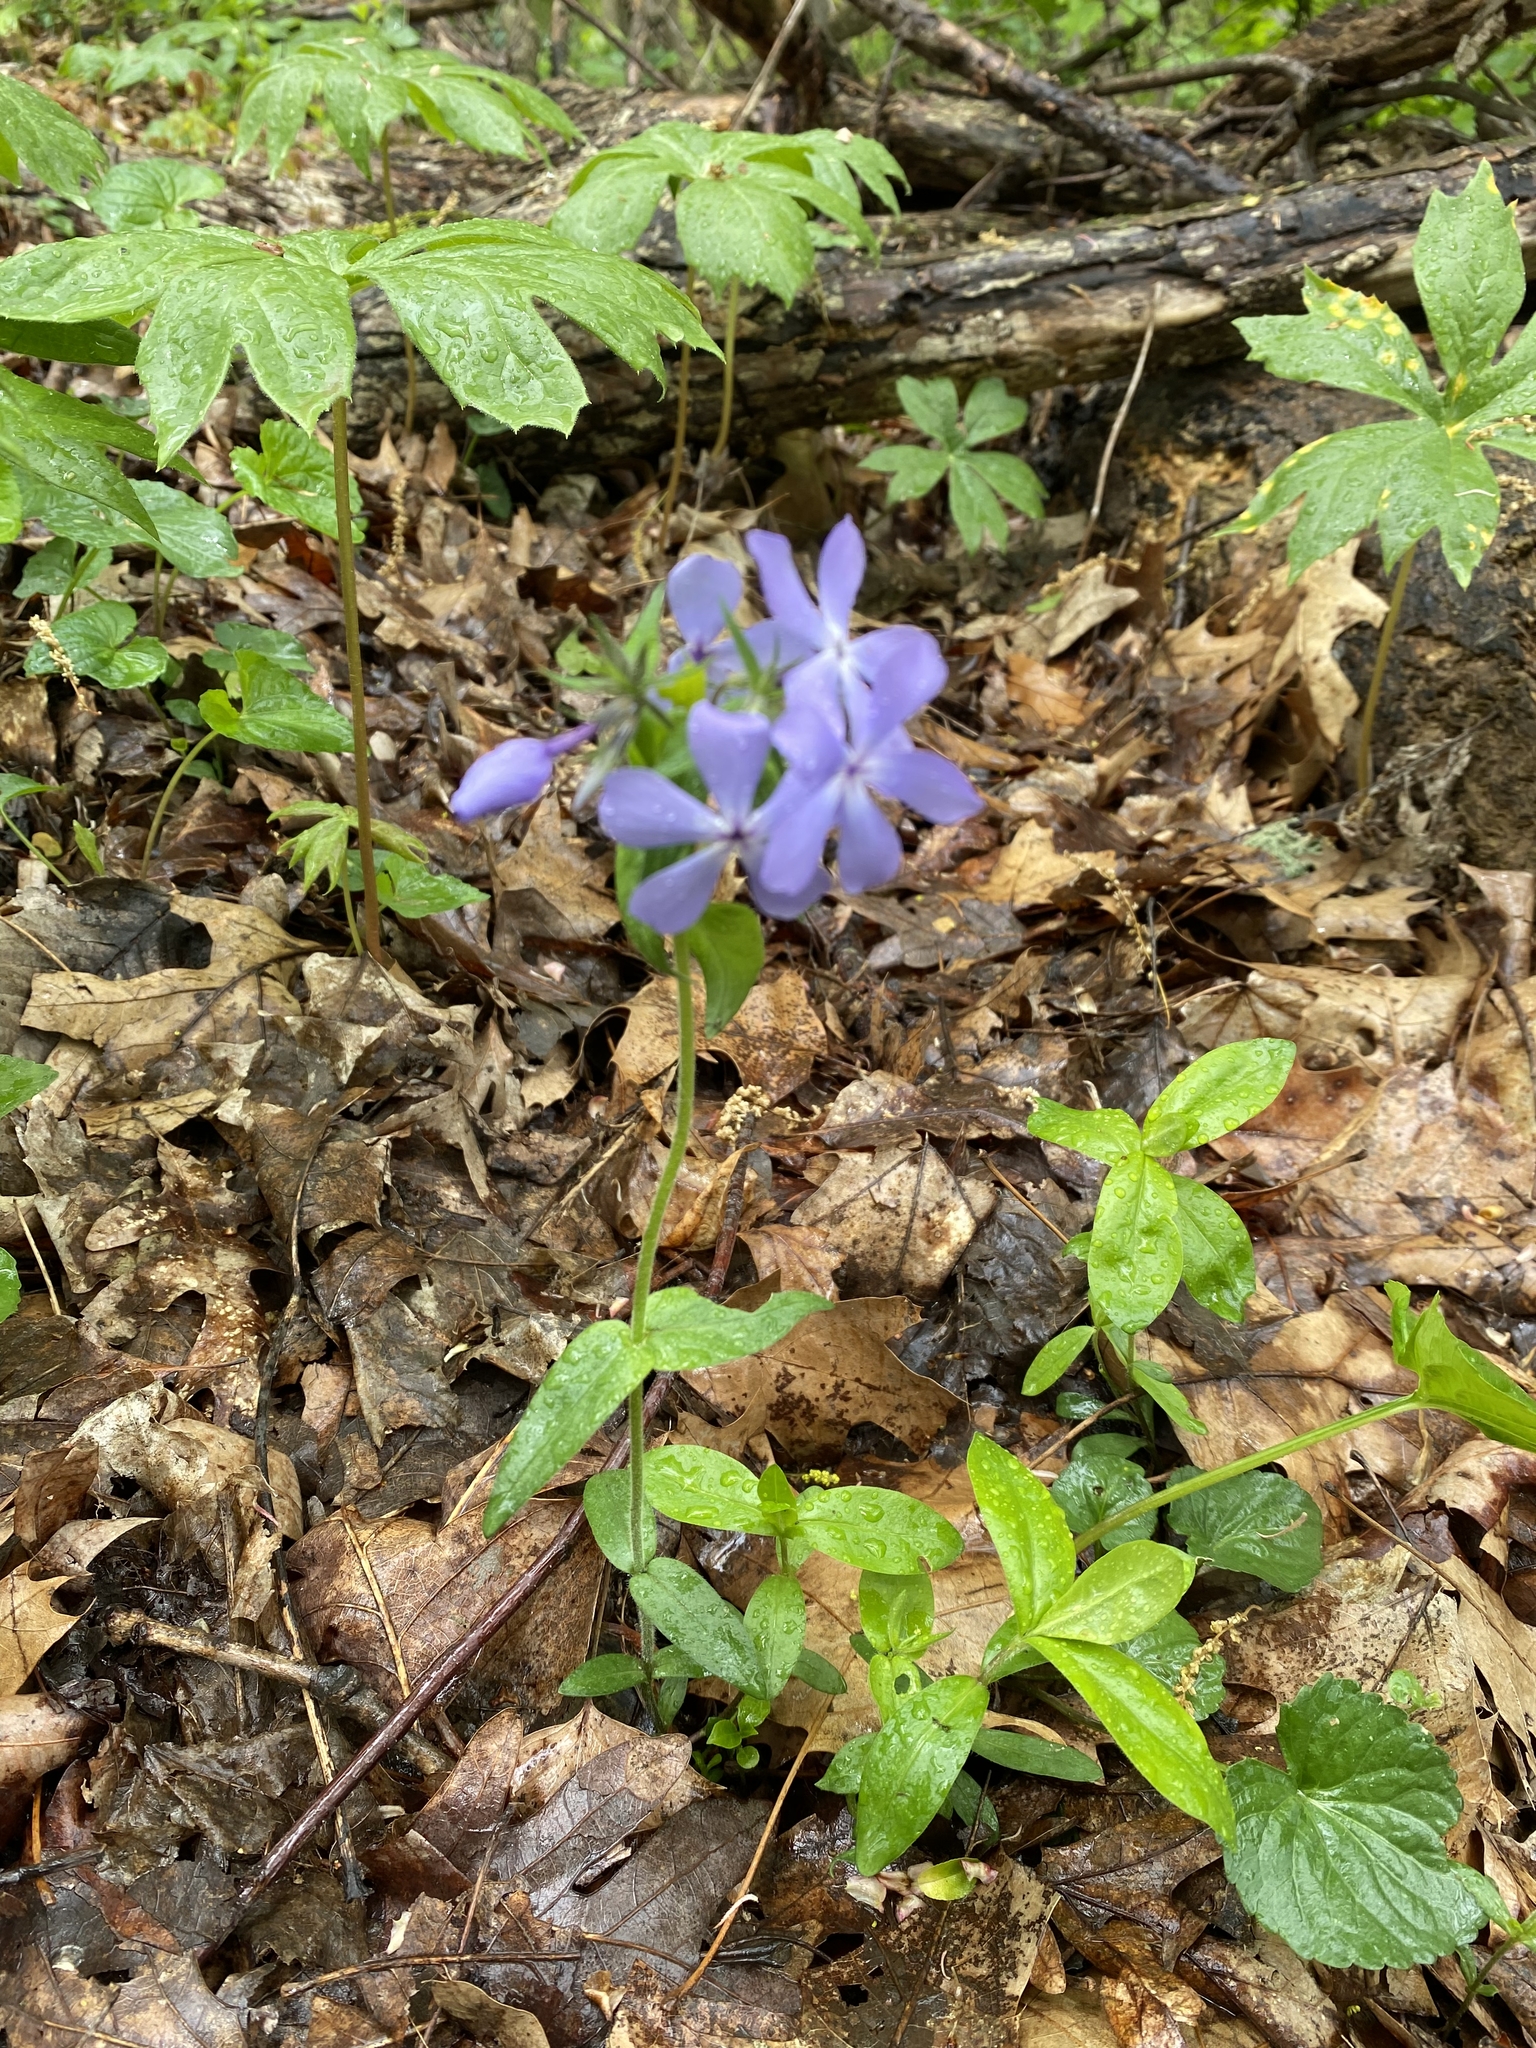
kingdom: Plantae
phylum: Tracheophyta
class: Magnoliopsida
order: Ericales
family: Polemoniaceae
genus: Phlox
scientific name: Phlox divaricata
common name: Blue phlox
